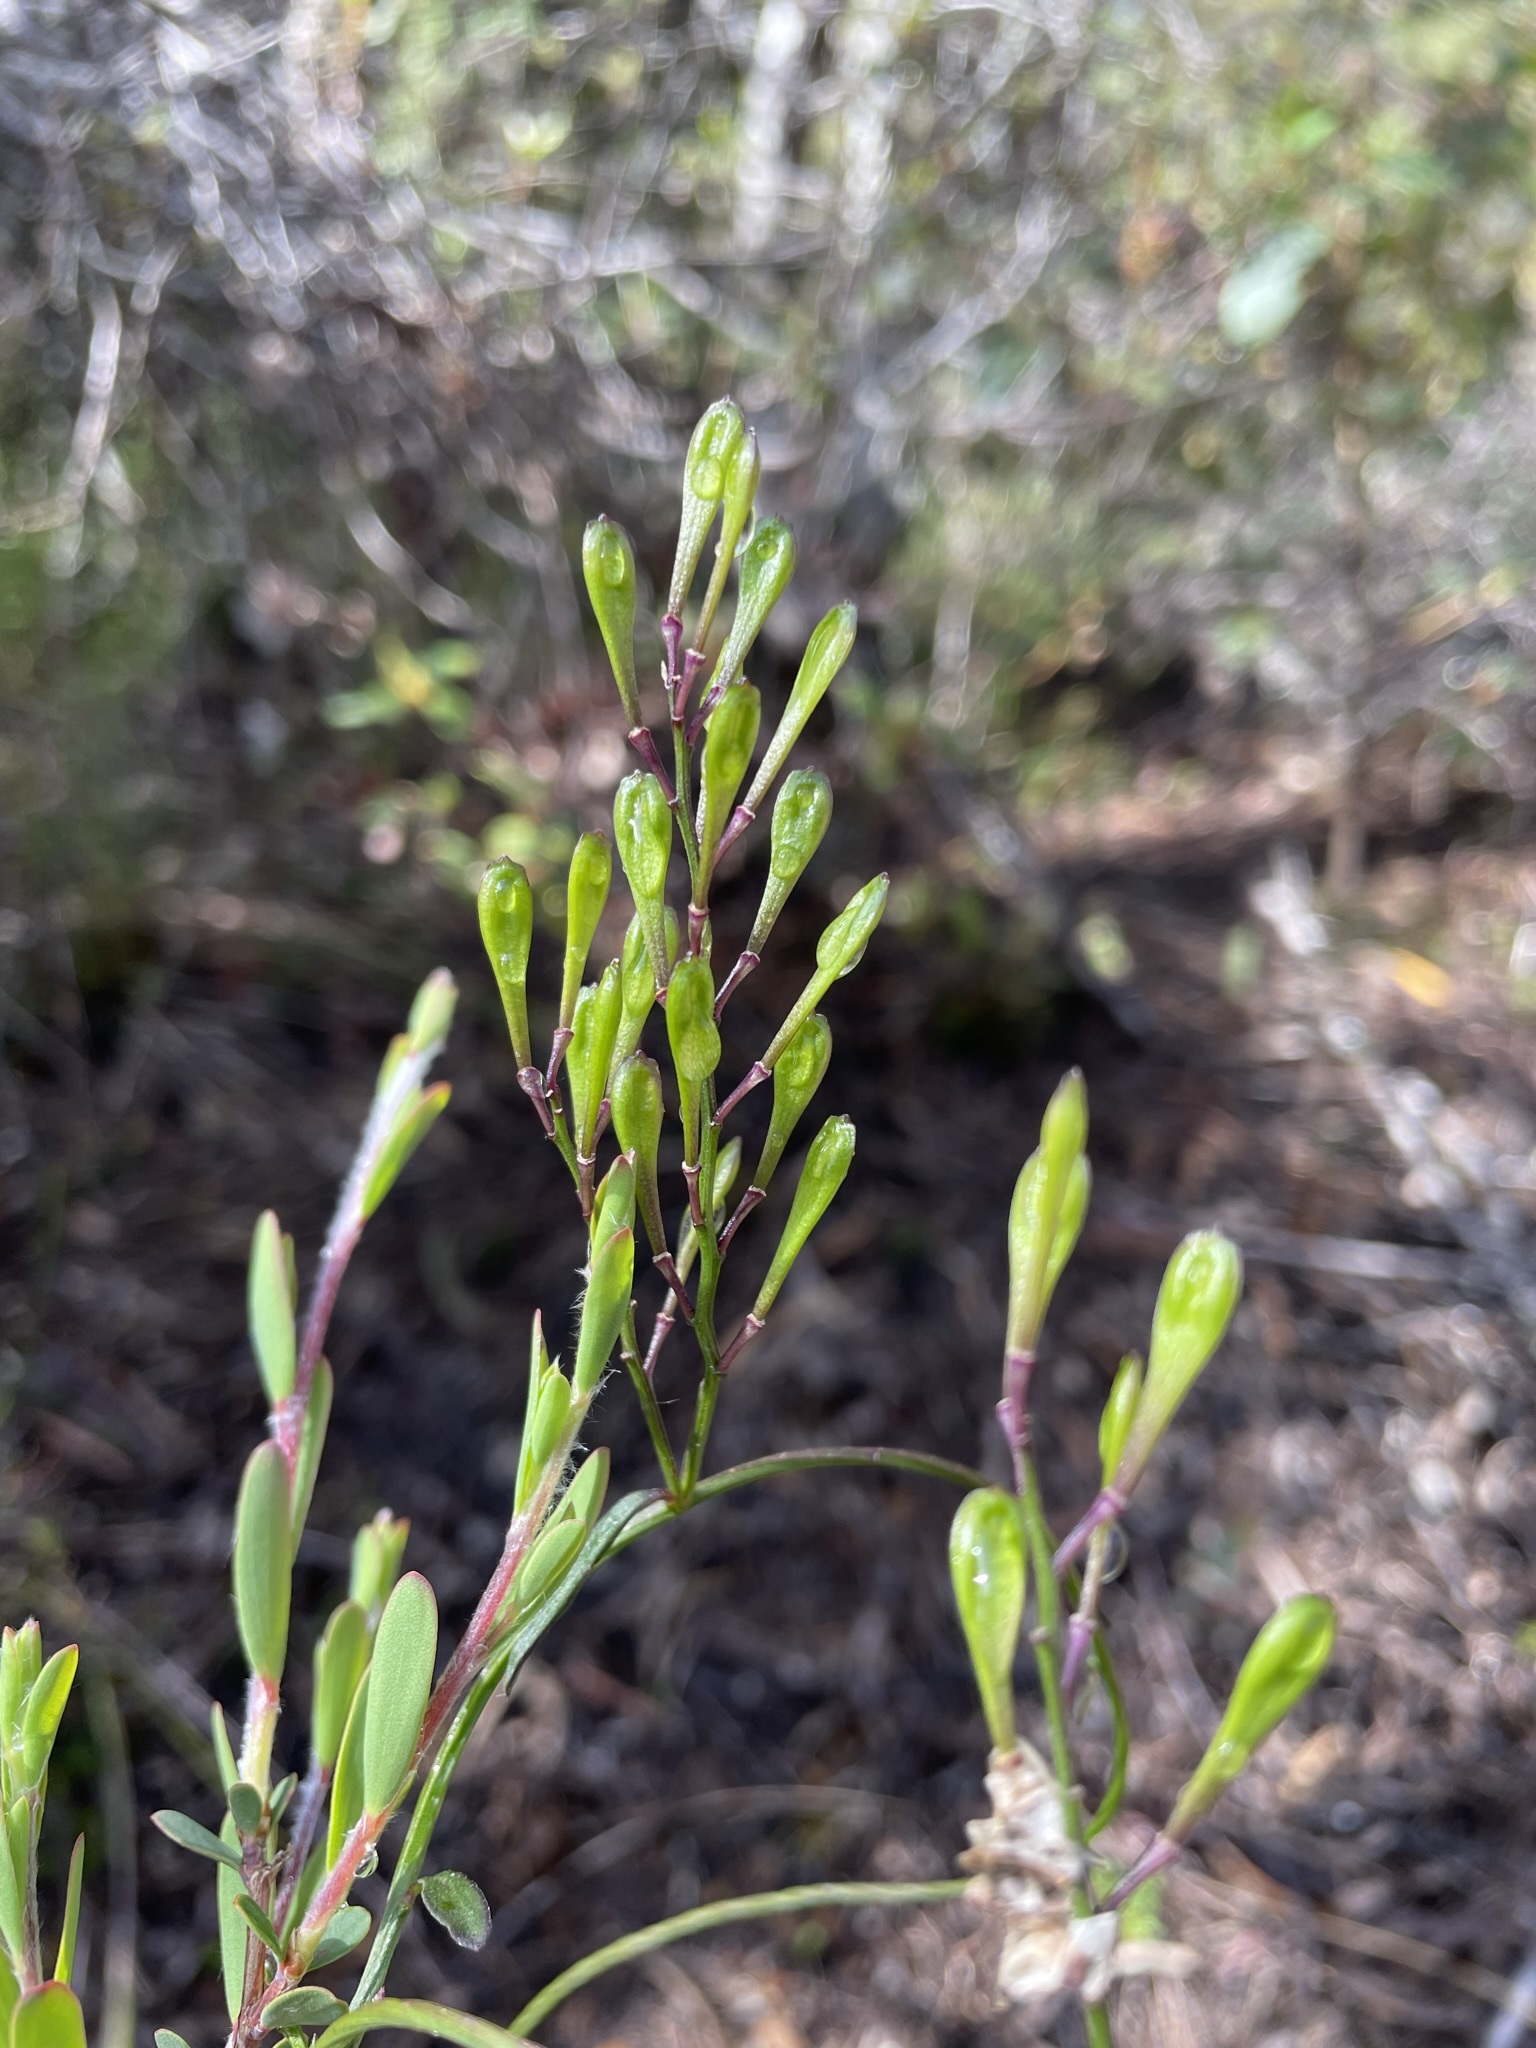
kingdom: Plantae
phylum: Tracheophyta
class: Magnoliopsida
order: Fabales
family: Polygalaceae
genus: Comesperma
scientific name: Comesperma volubile
